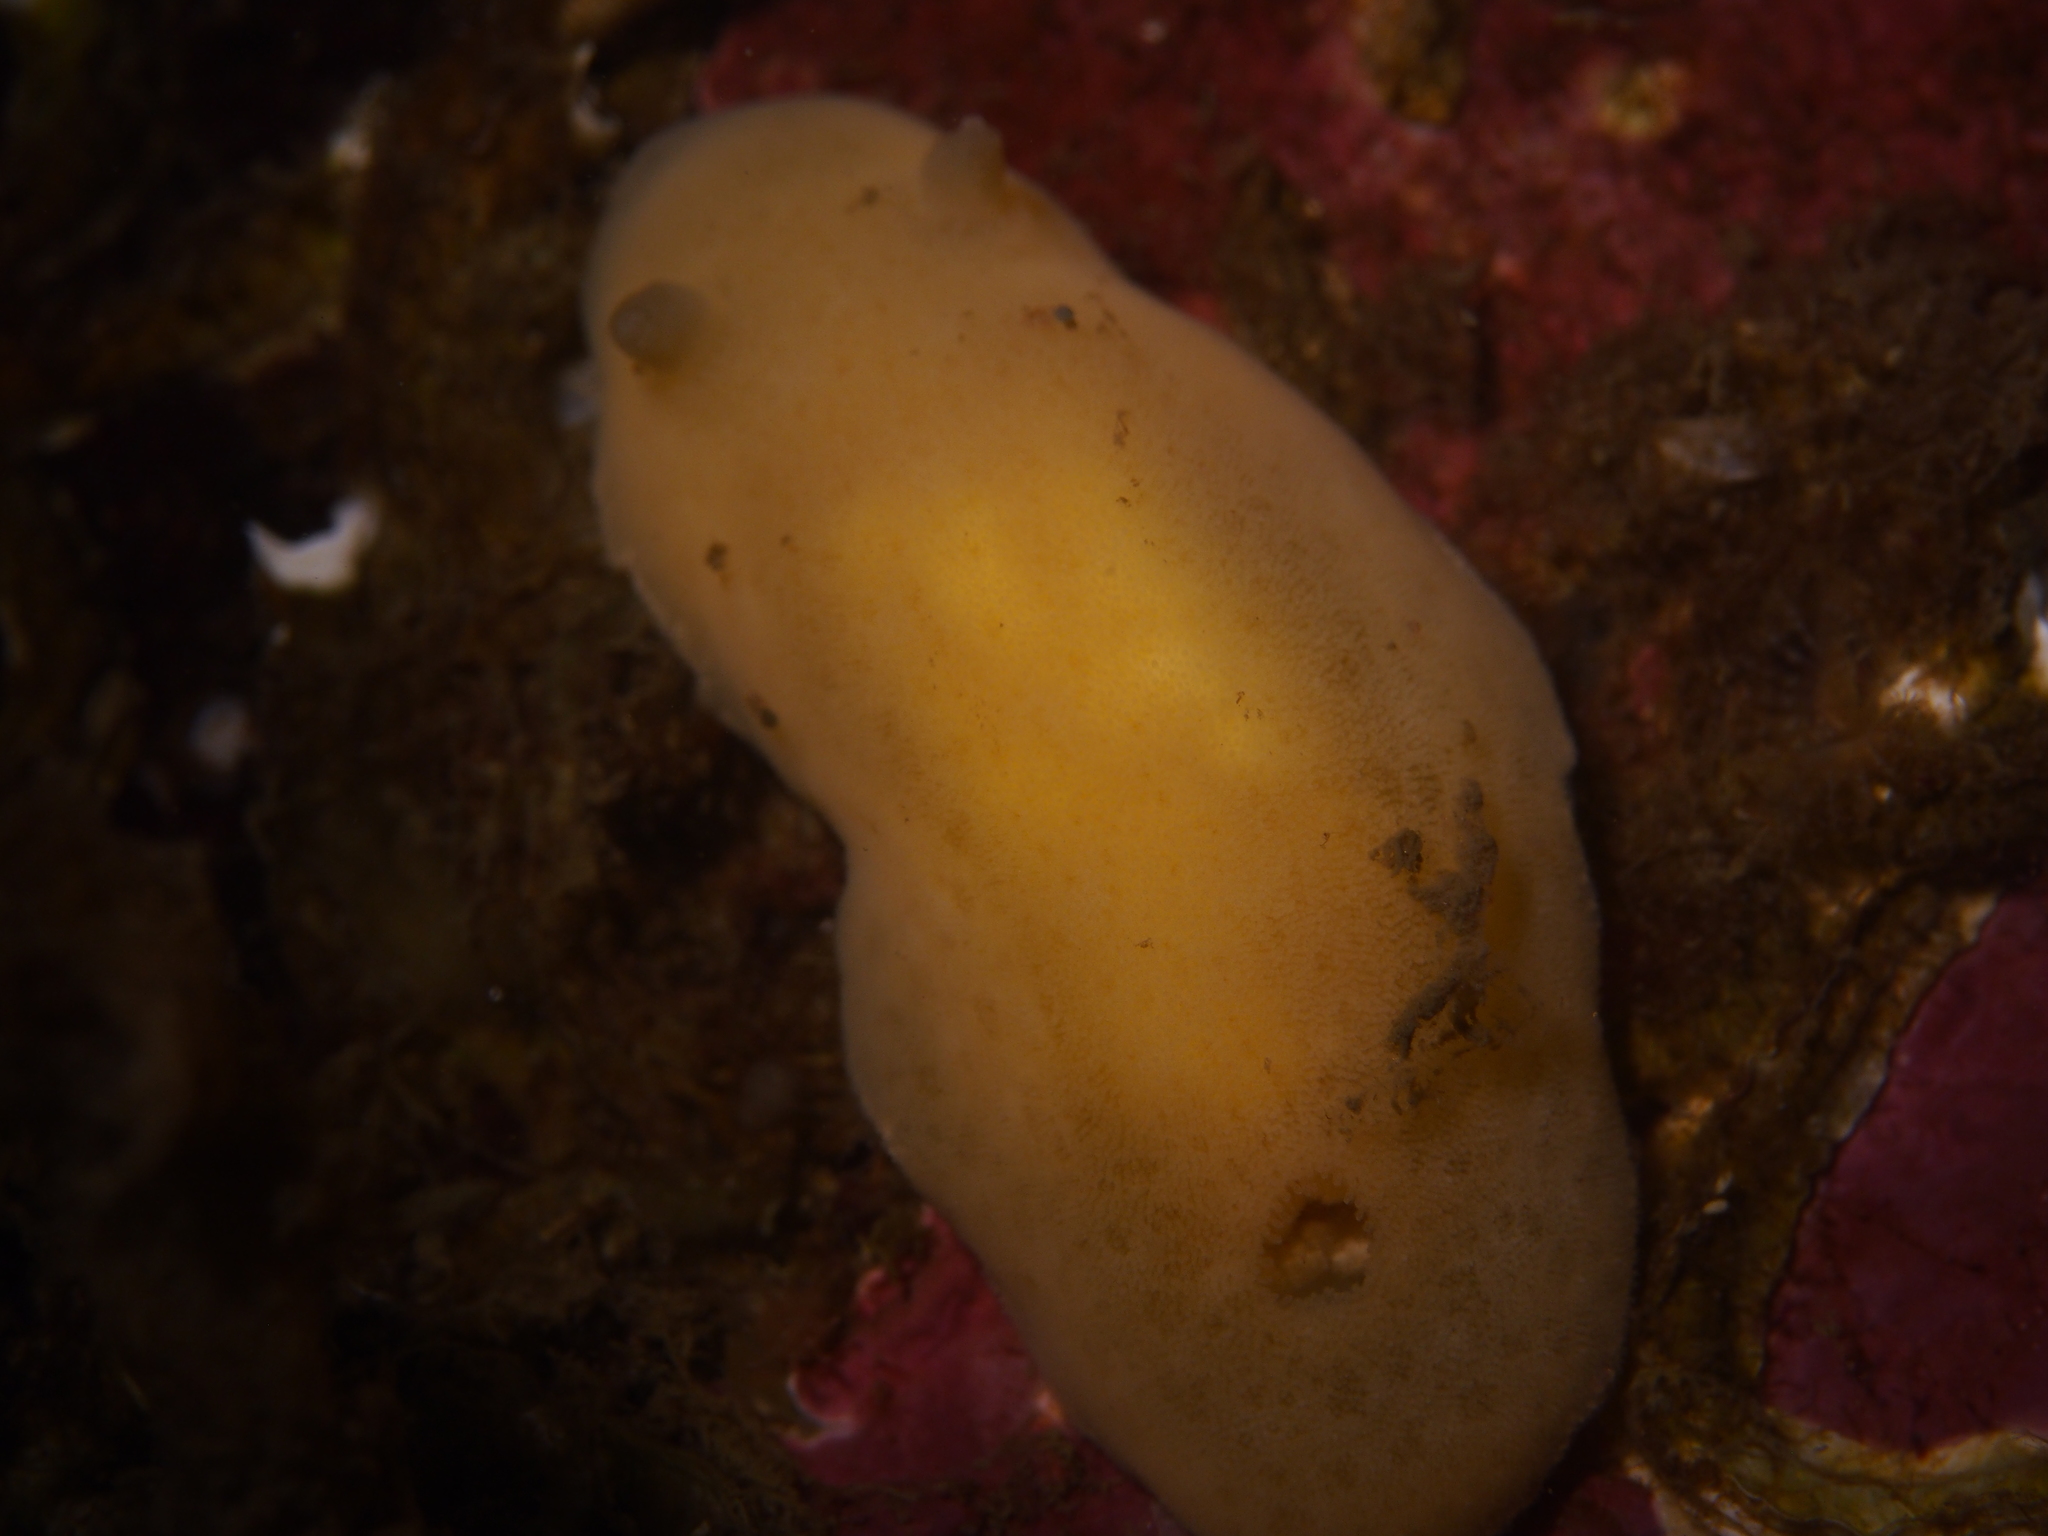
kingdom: Animalia
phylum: Mollusca
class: Gastropoda
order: Nudibranchia
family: Discodorididae
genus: Jorunna
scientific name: Jorunna tomentosa
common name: Grey sea slug
